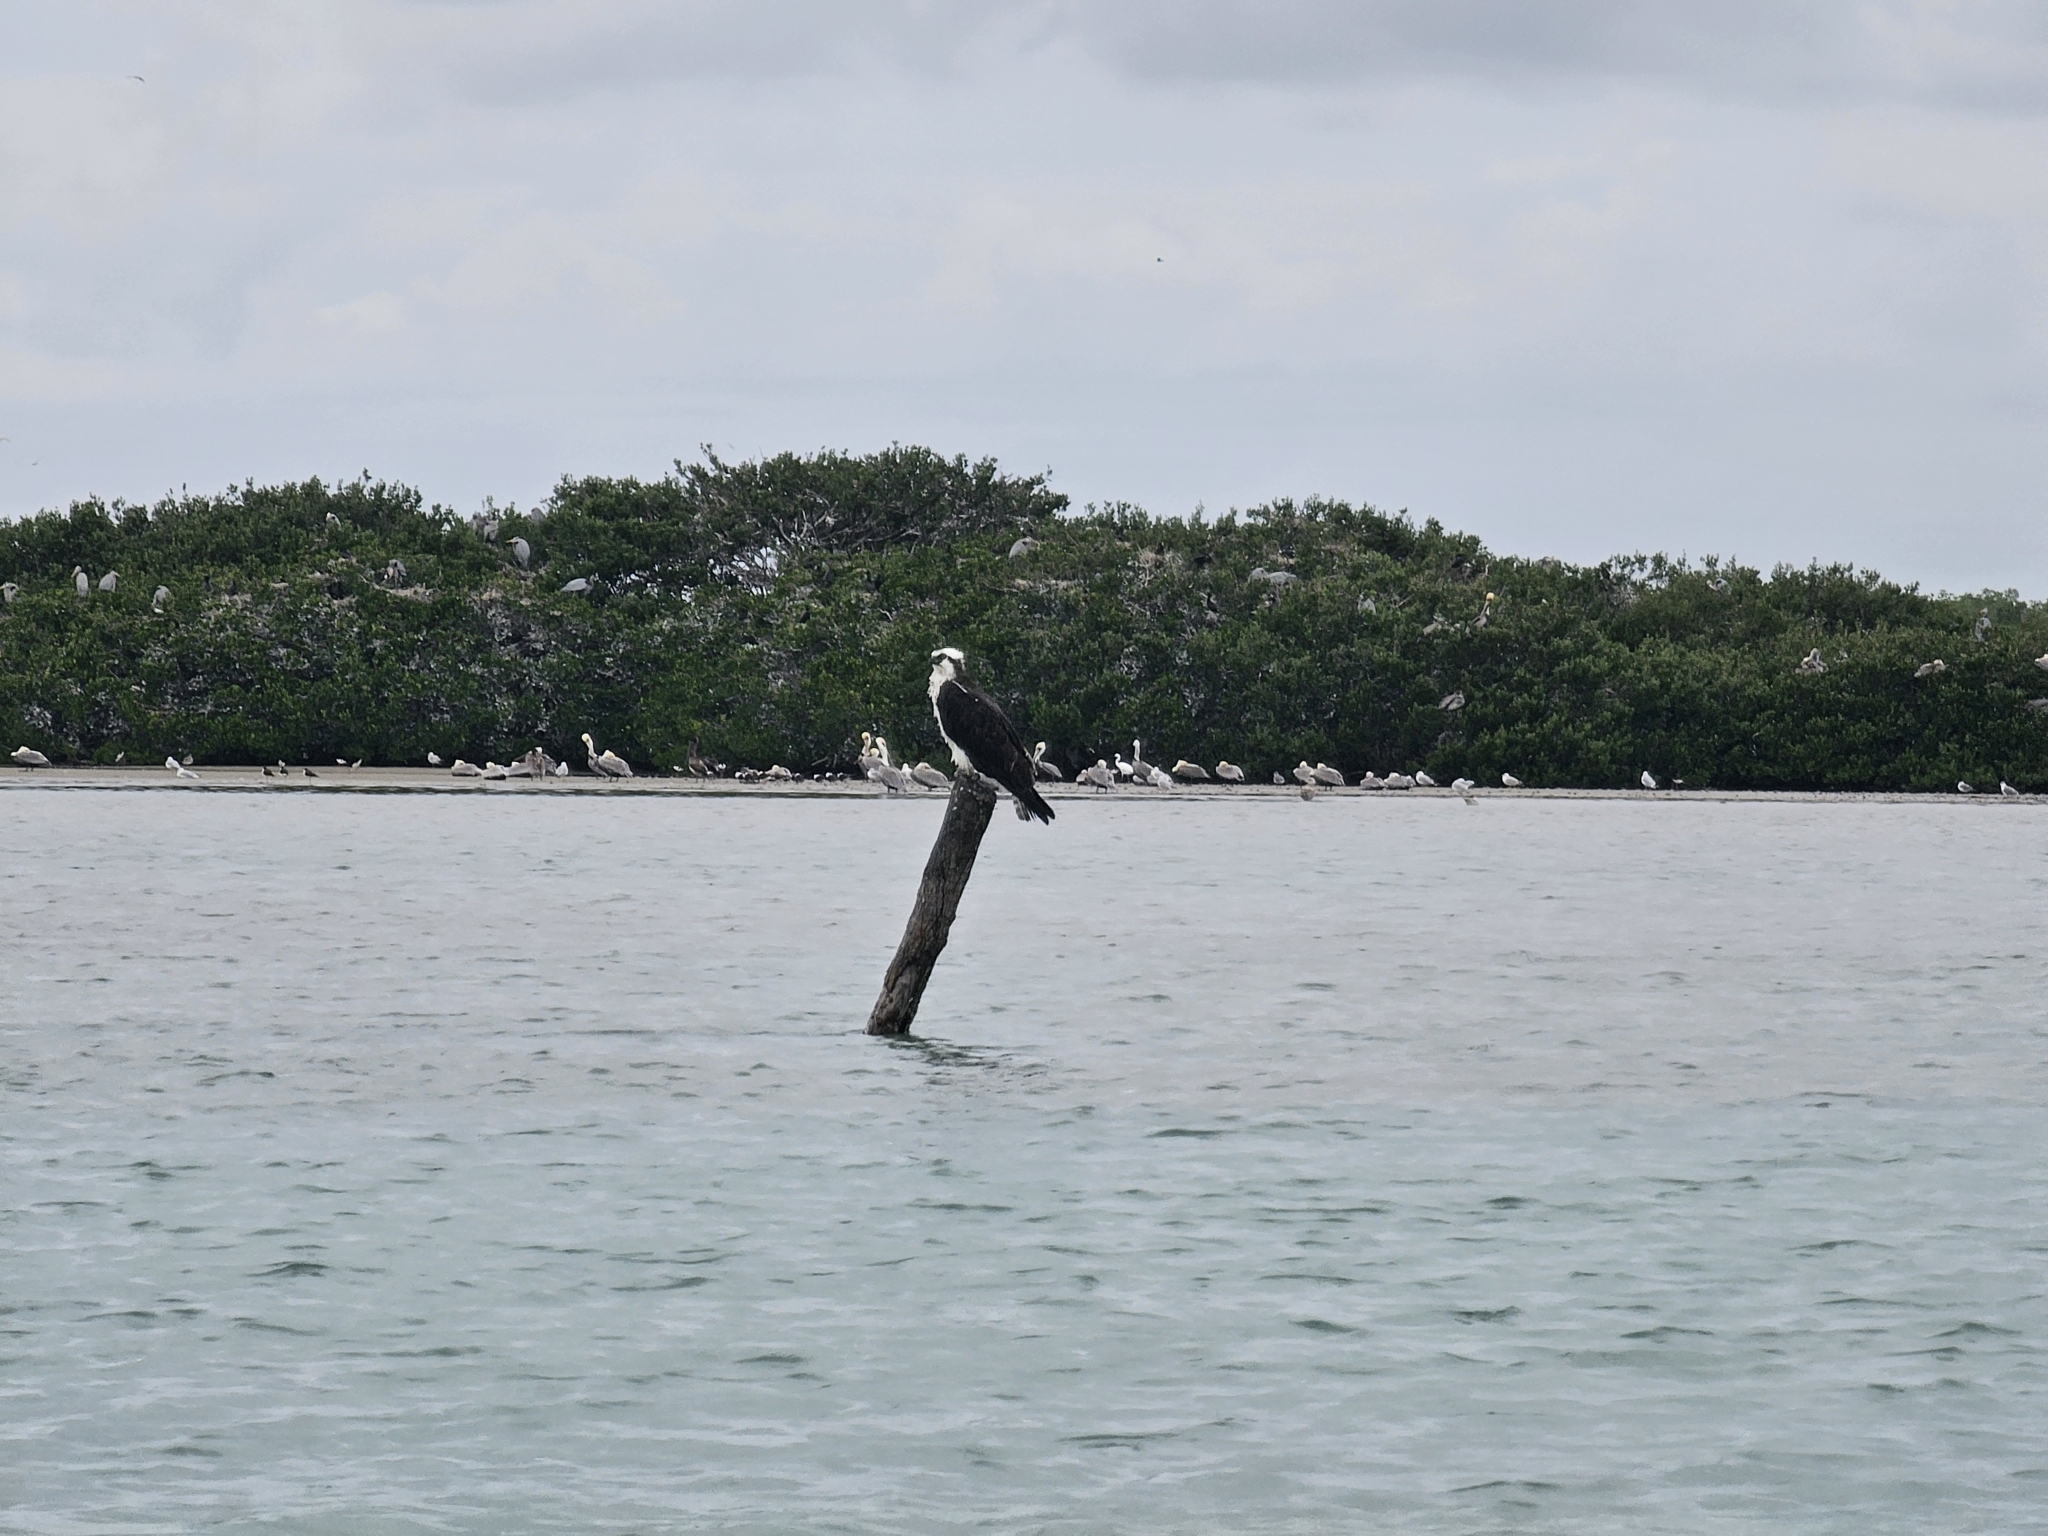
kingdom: Animalia
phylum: Chordata
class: Aves
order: Accipitriformes
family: Pandionidae
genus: Pandion
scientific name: Pandion haliaetus
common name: Osprey
